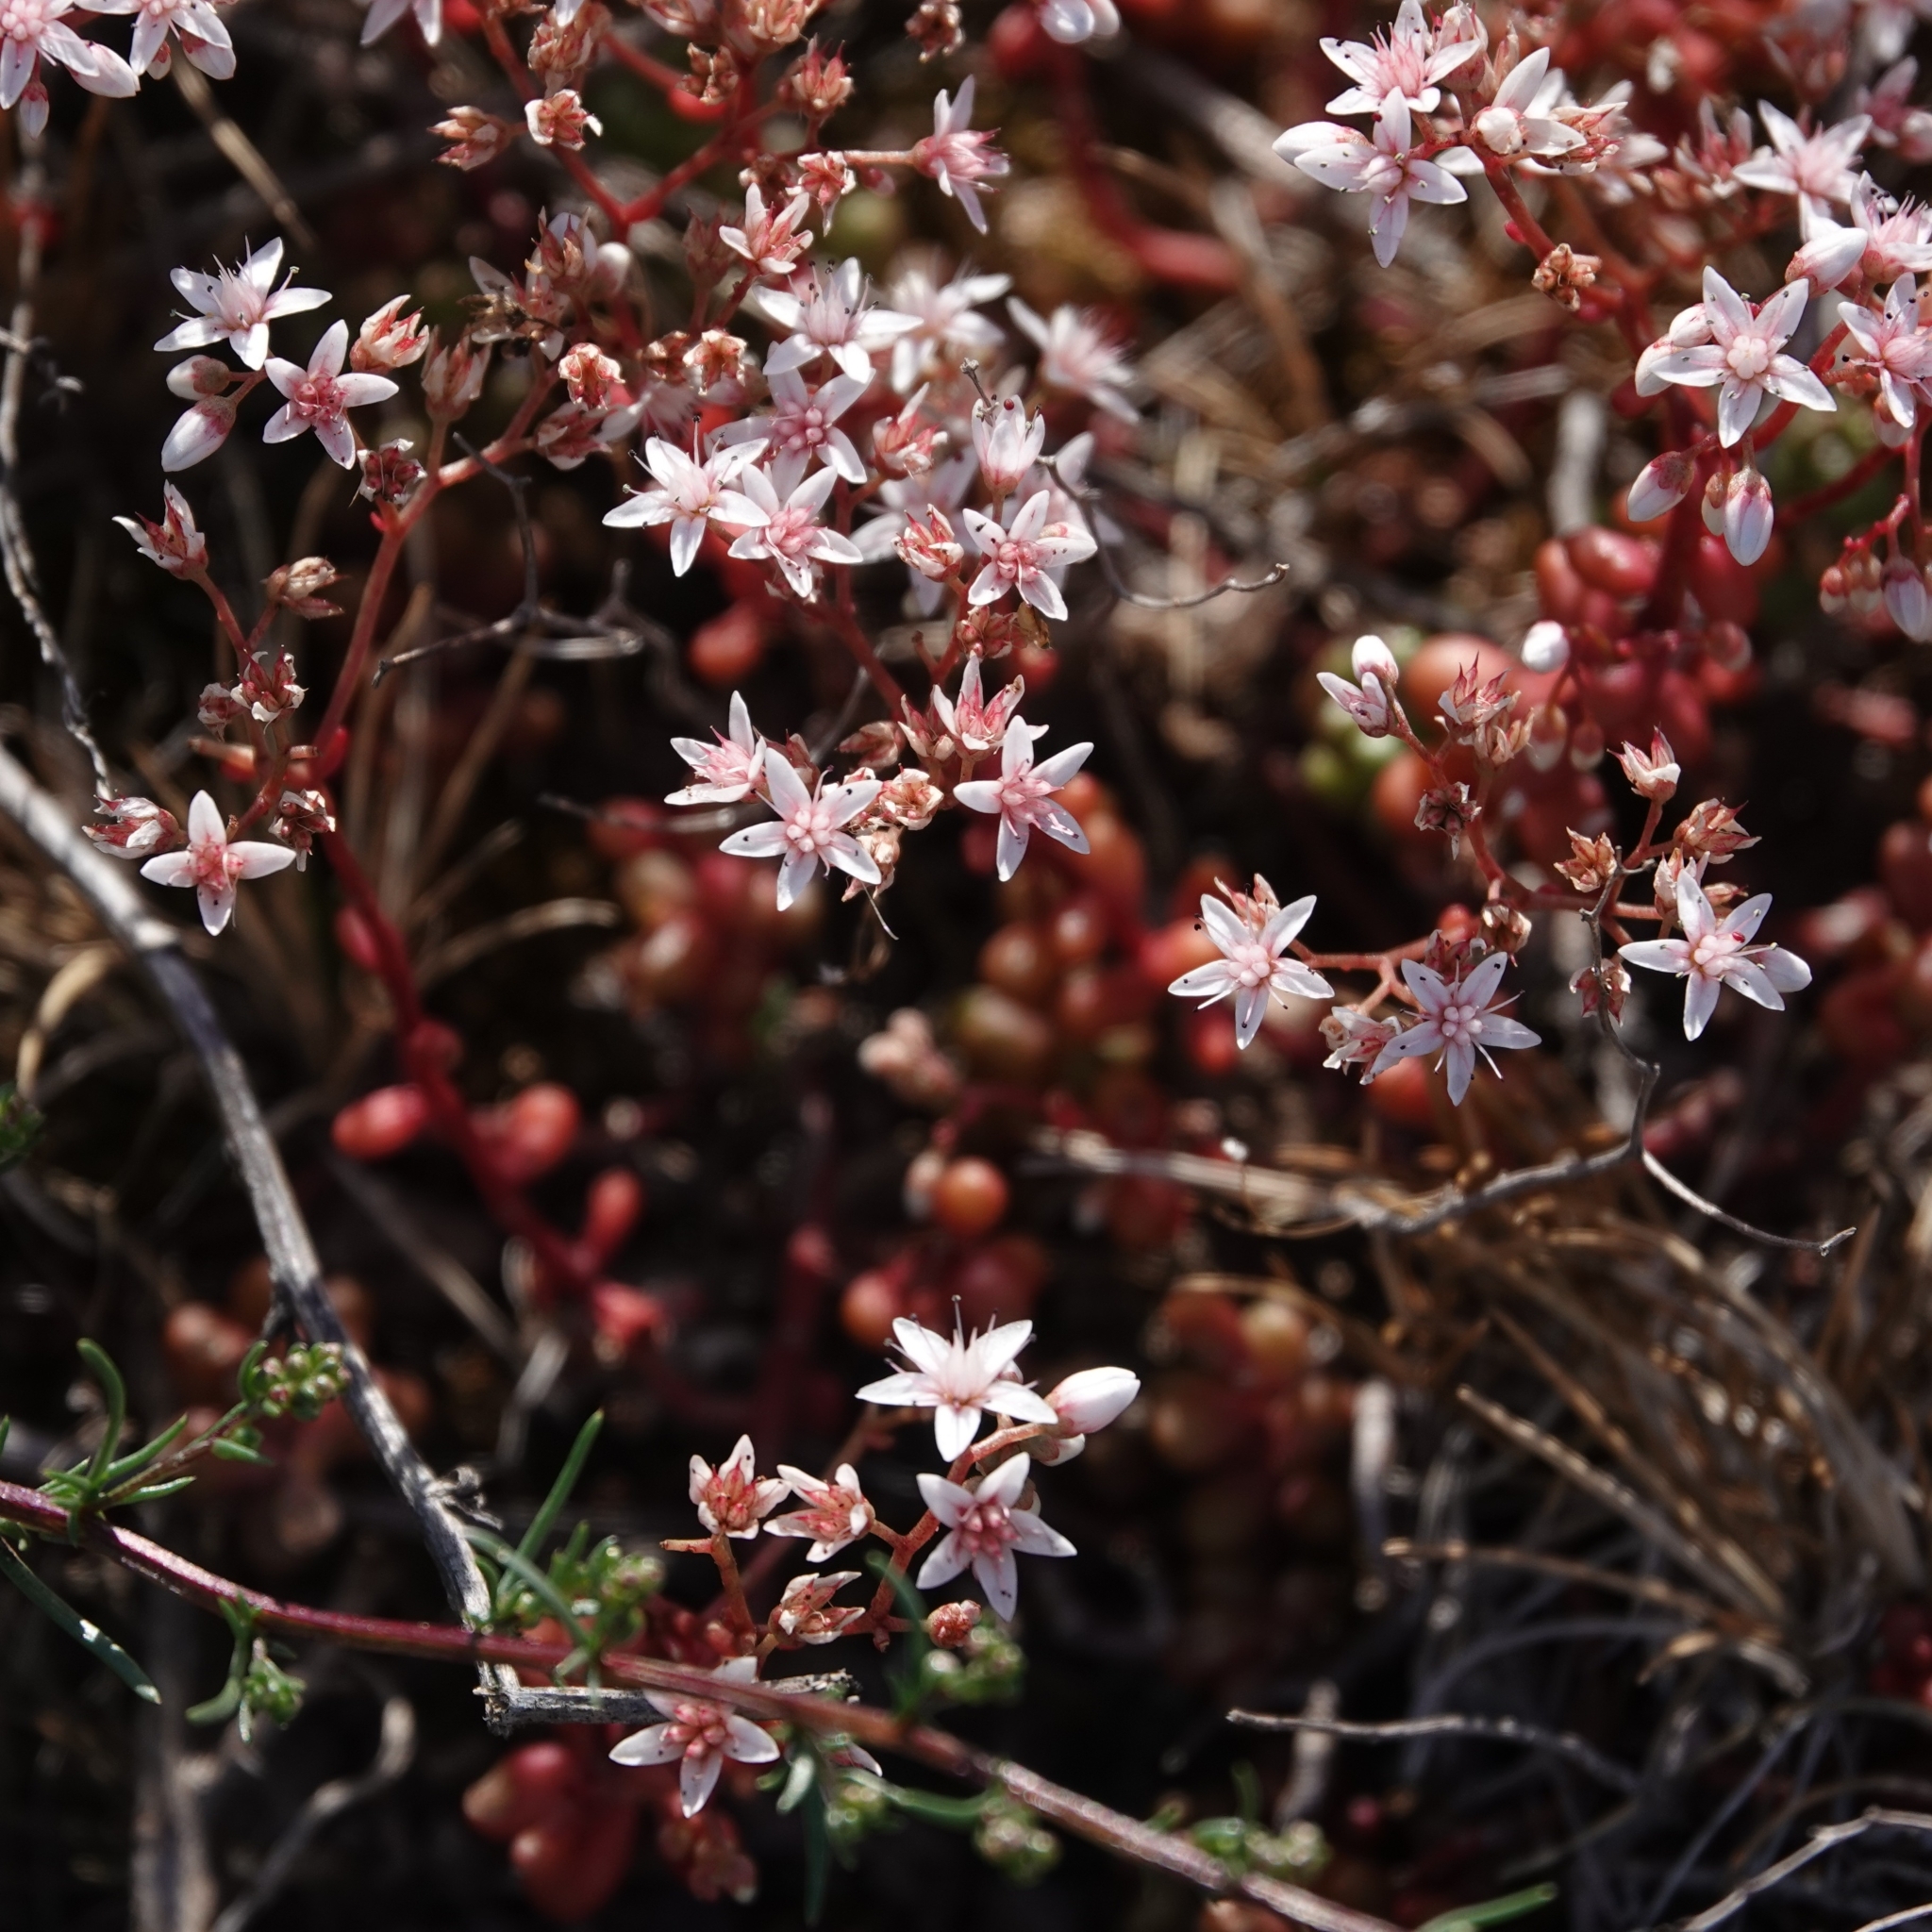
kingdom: Plantae
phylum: Tracheophyta
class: Magnoliopsida
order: Saxifragales
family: Crassulaceae
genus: Sedum
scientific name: Sedum album
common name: White stonecrop
